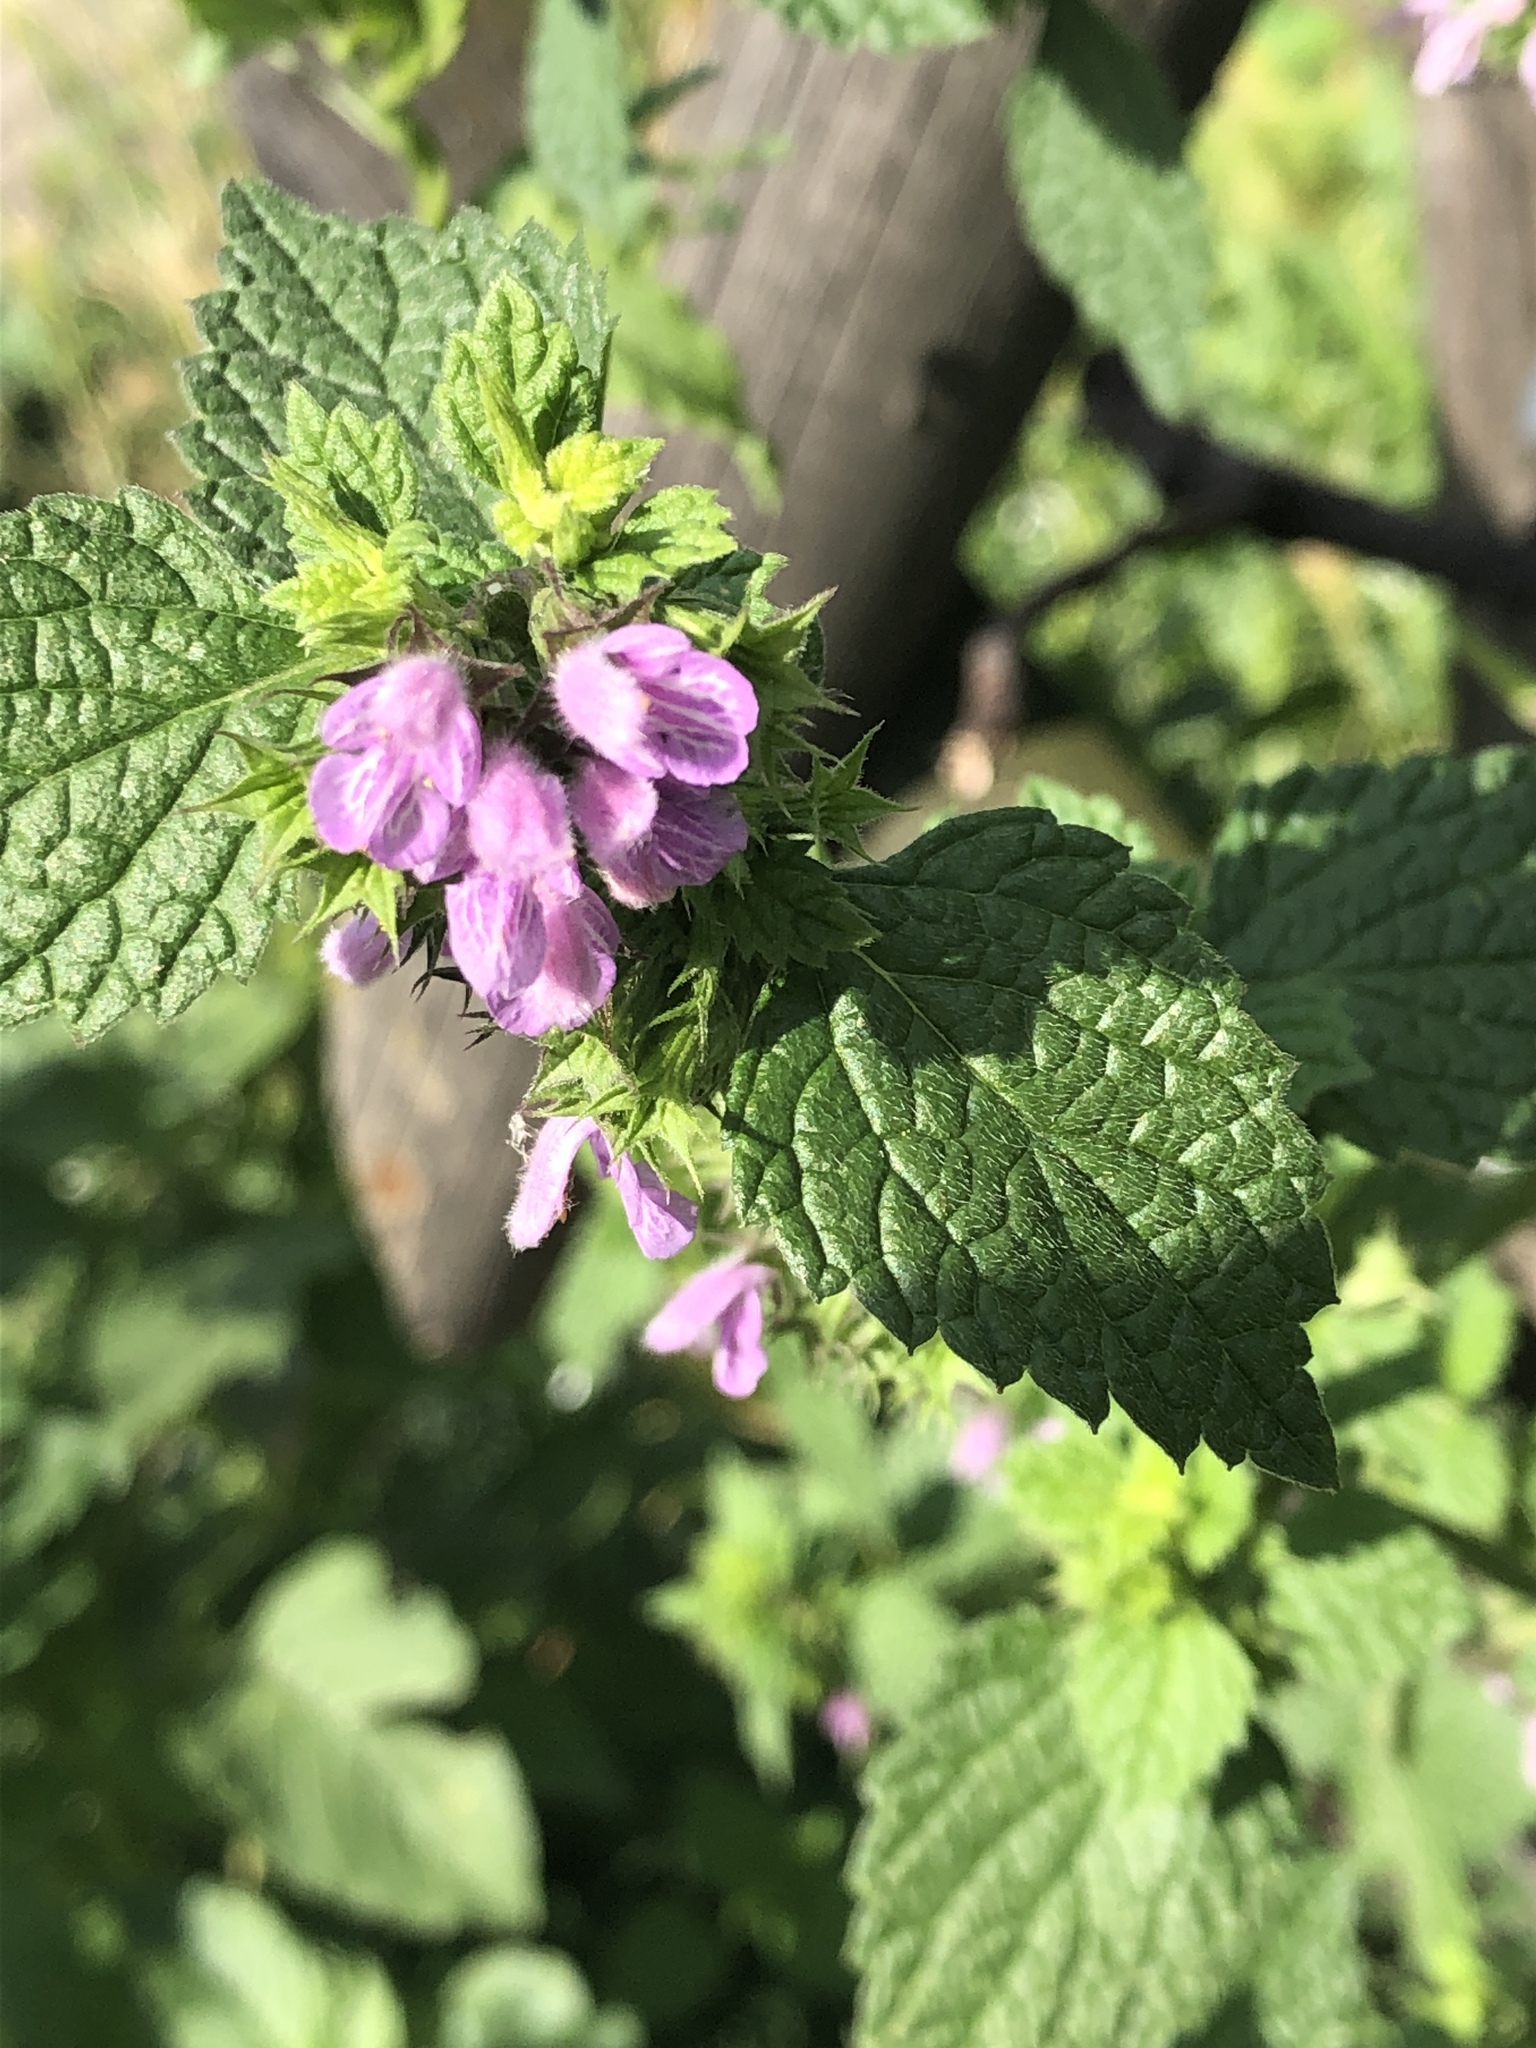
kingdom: Plantae
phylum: Tracheophyta
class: Magnoliopsida
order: Lamiales
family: Lamiaceae
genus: Ballota
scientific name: Ballota nigra
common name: Black horehound
